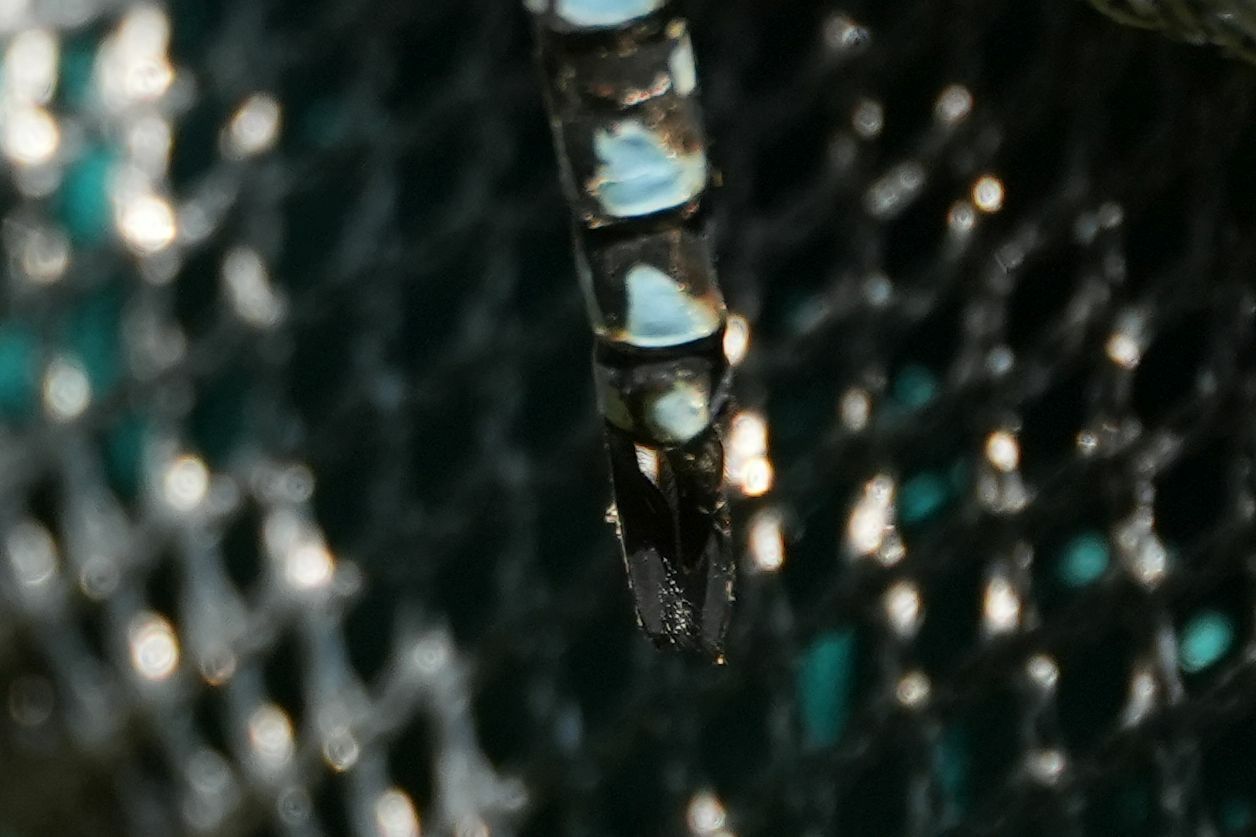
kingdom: Animalia
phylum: Arthropoda
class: Insecta
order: Odonata
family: Aeshnidae
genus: Aeshna
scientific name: Aeshna canadensis
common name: Canada darner
